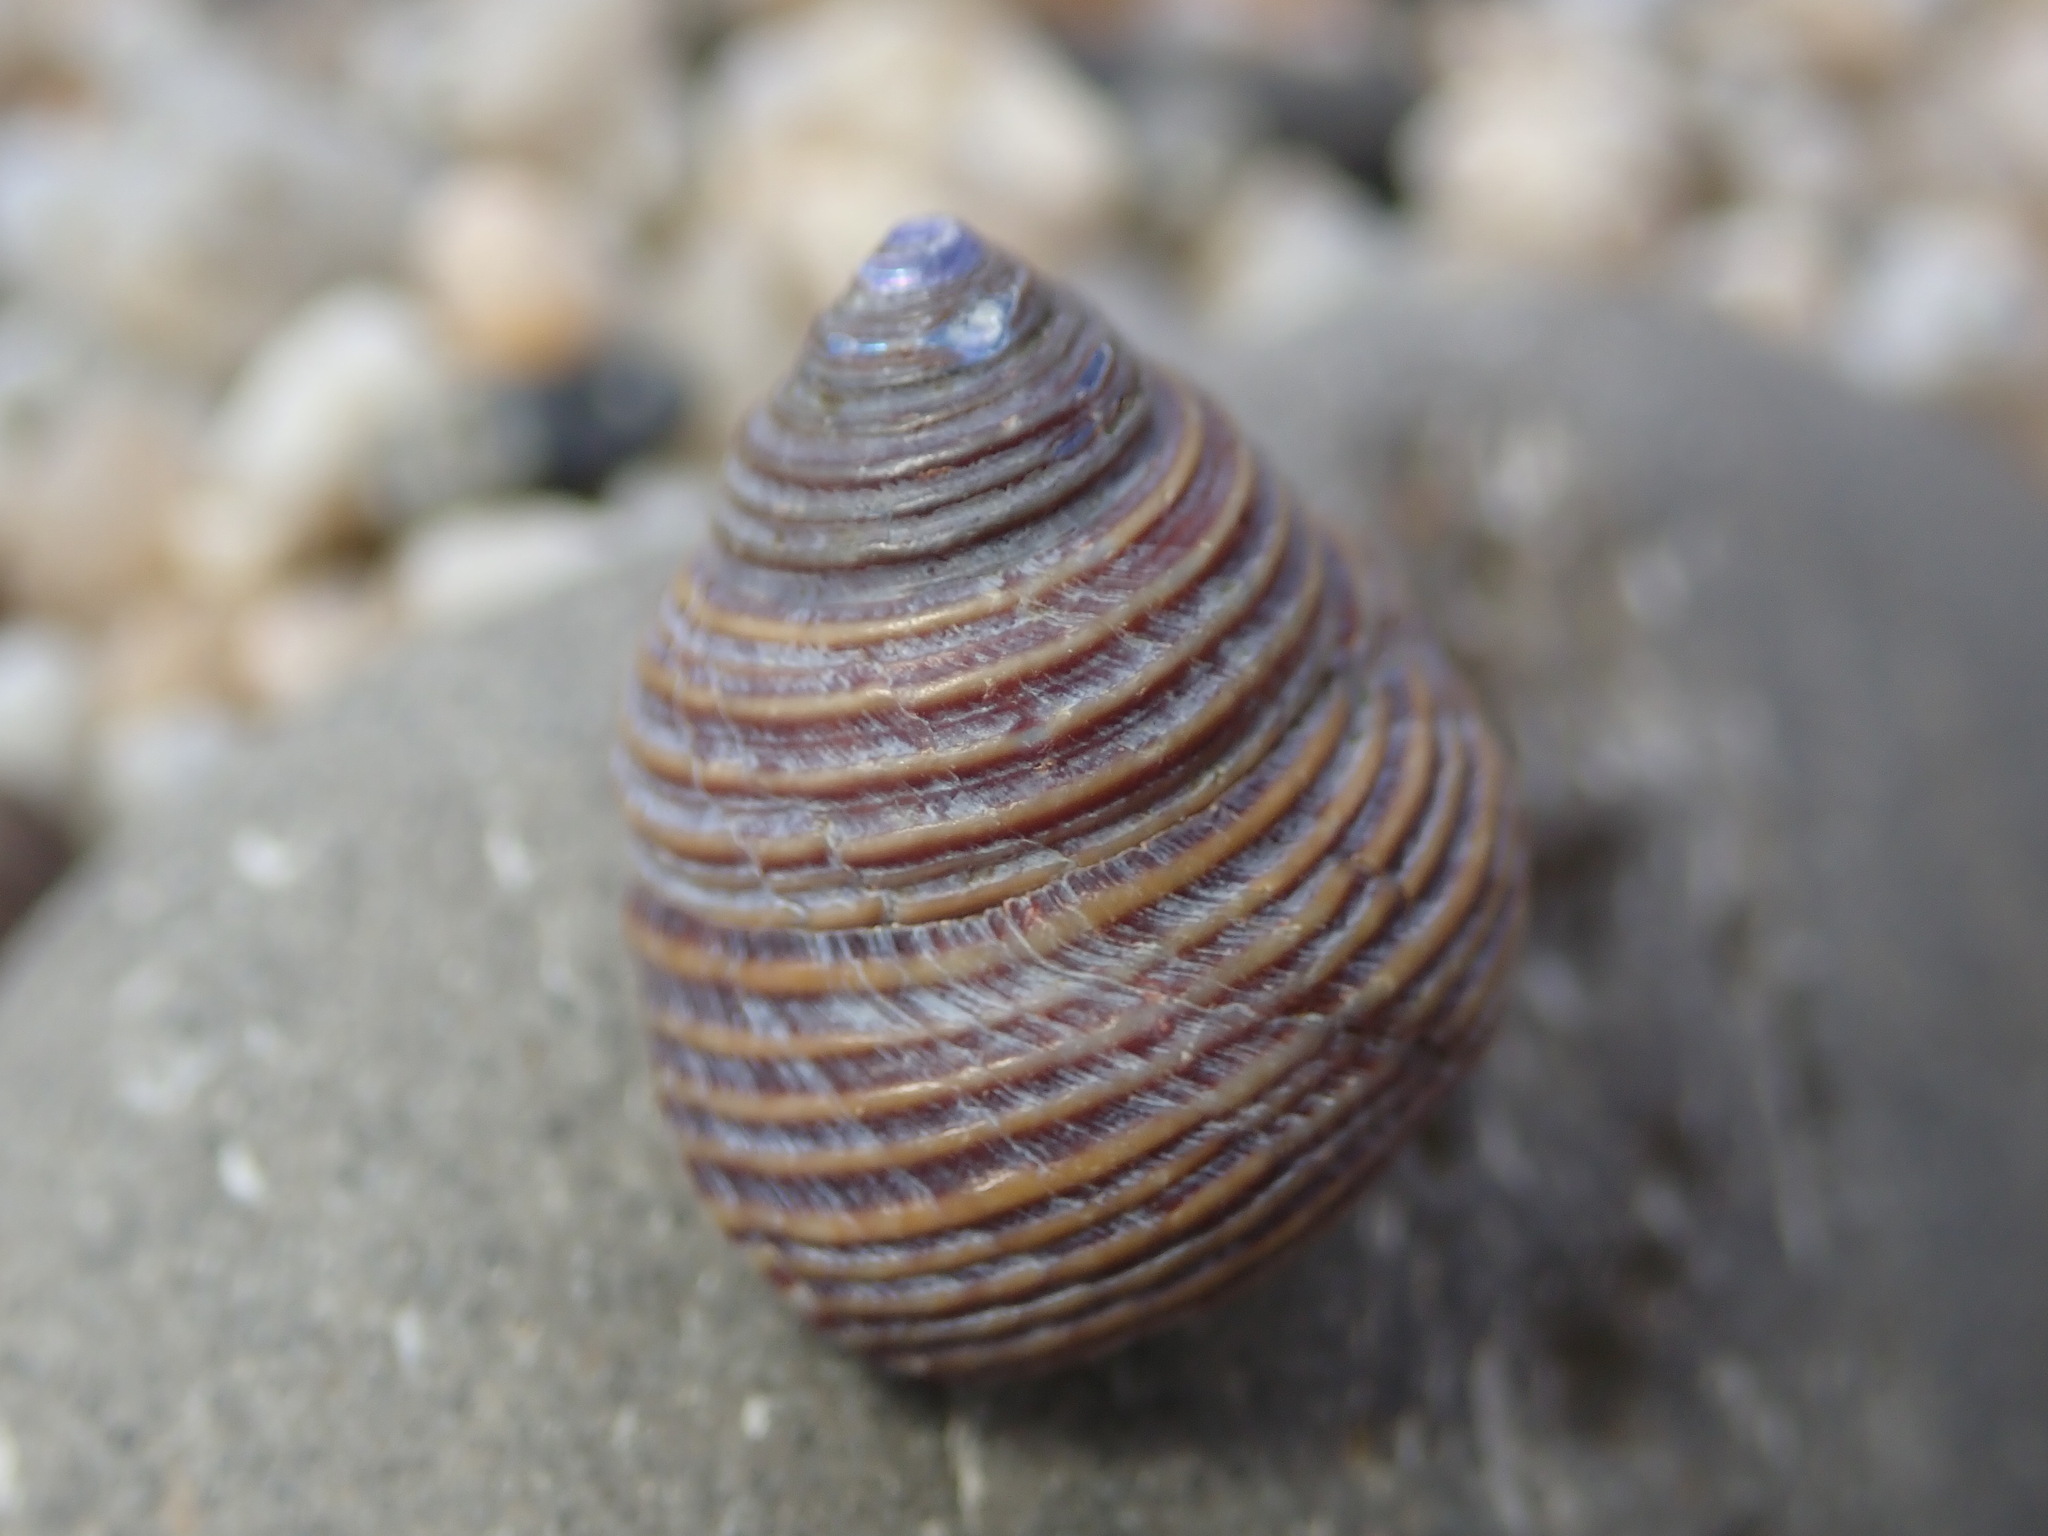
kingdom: Animalia
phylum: Mollusca
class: Gastropoda
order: Trochida
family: Calliostomatidae
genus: Calliostoma
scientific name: Calliostoma ligatum
